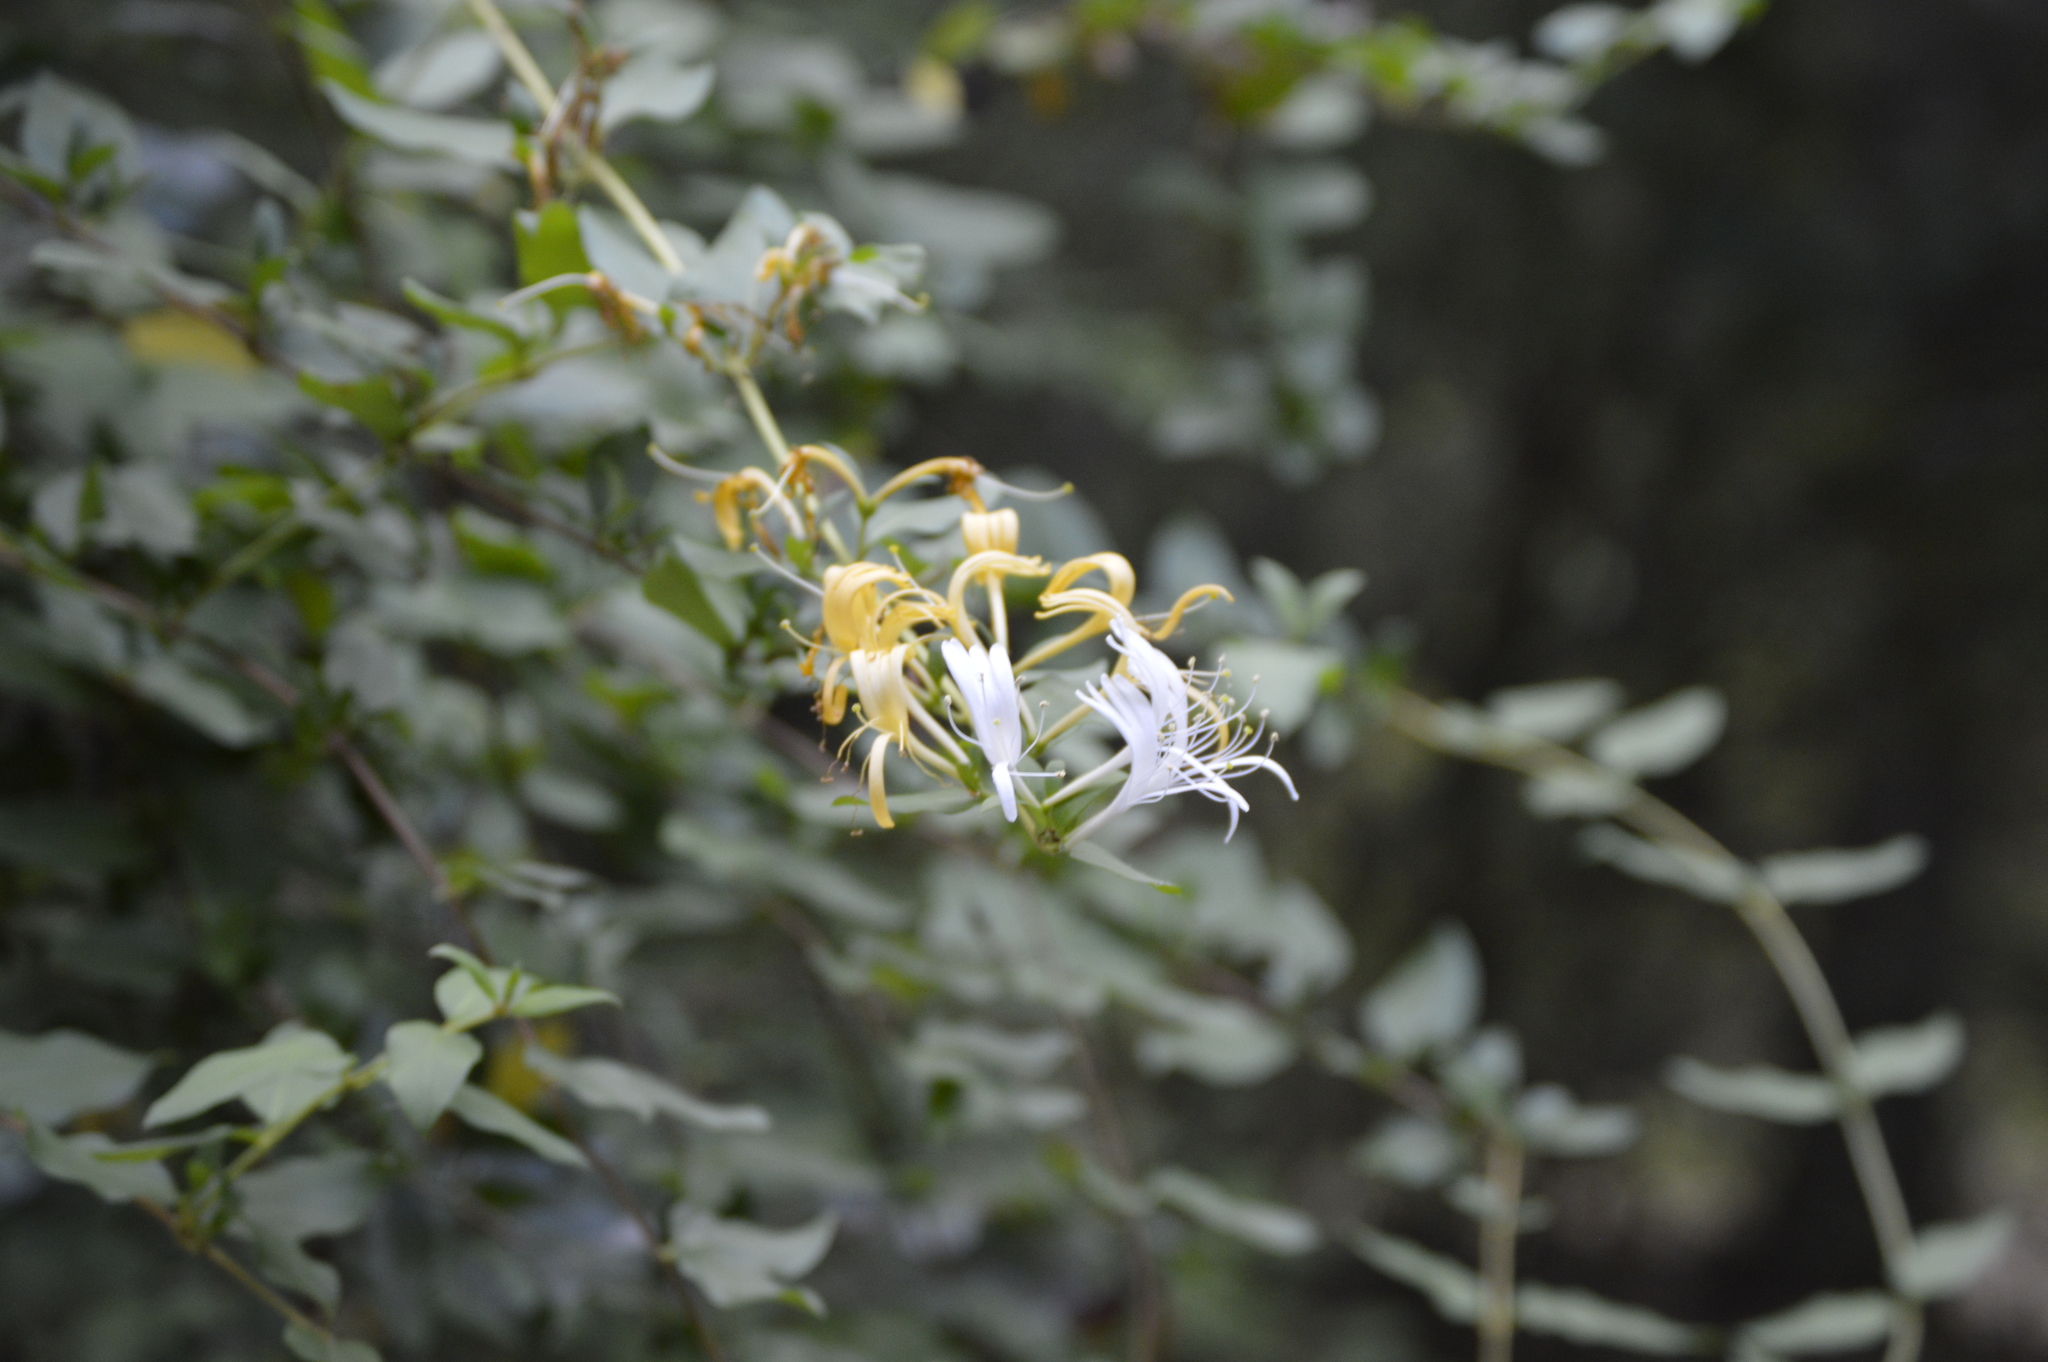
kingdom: Plantae
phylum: Tracheophyta
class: Magnoliopsida
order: Dipsacales
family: Caprifoliaceae
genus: Lonicera
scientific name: Lonicera japonica
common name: Japanese honeysuckle
